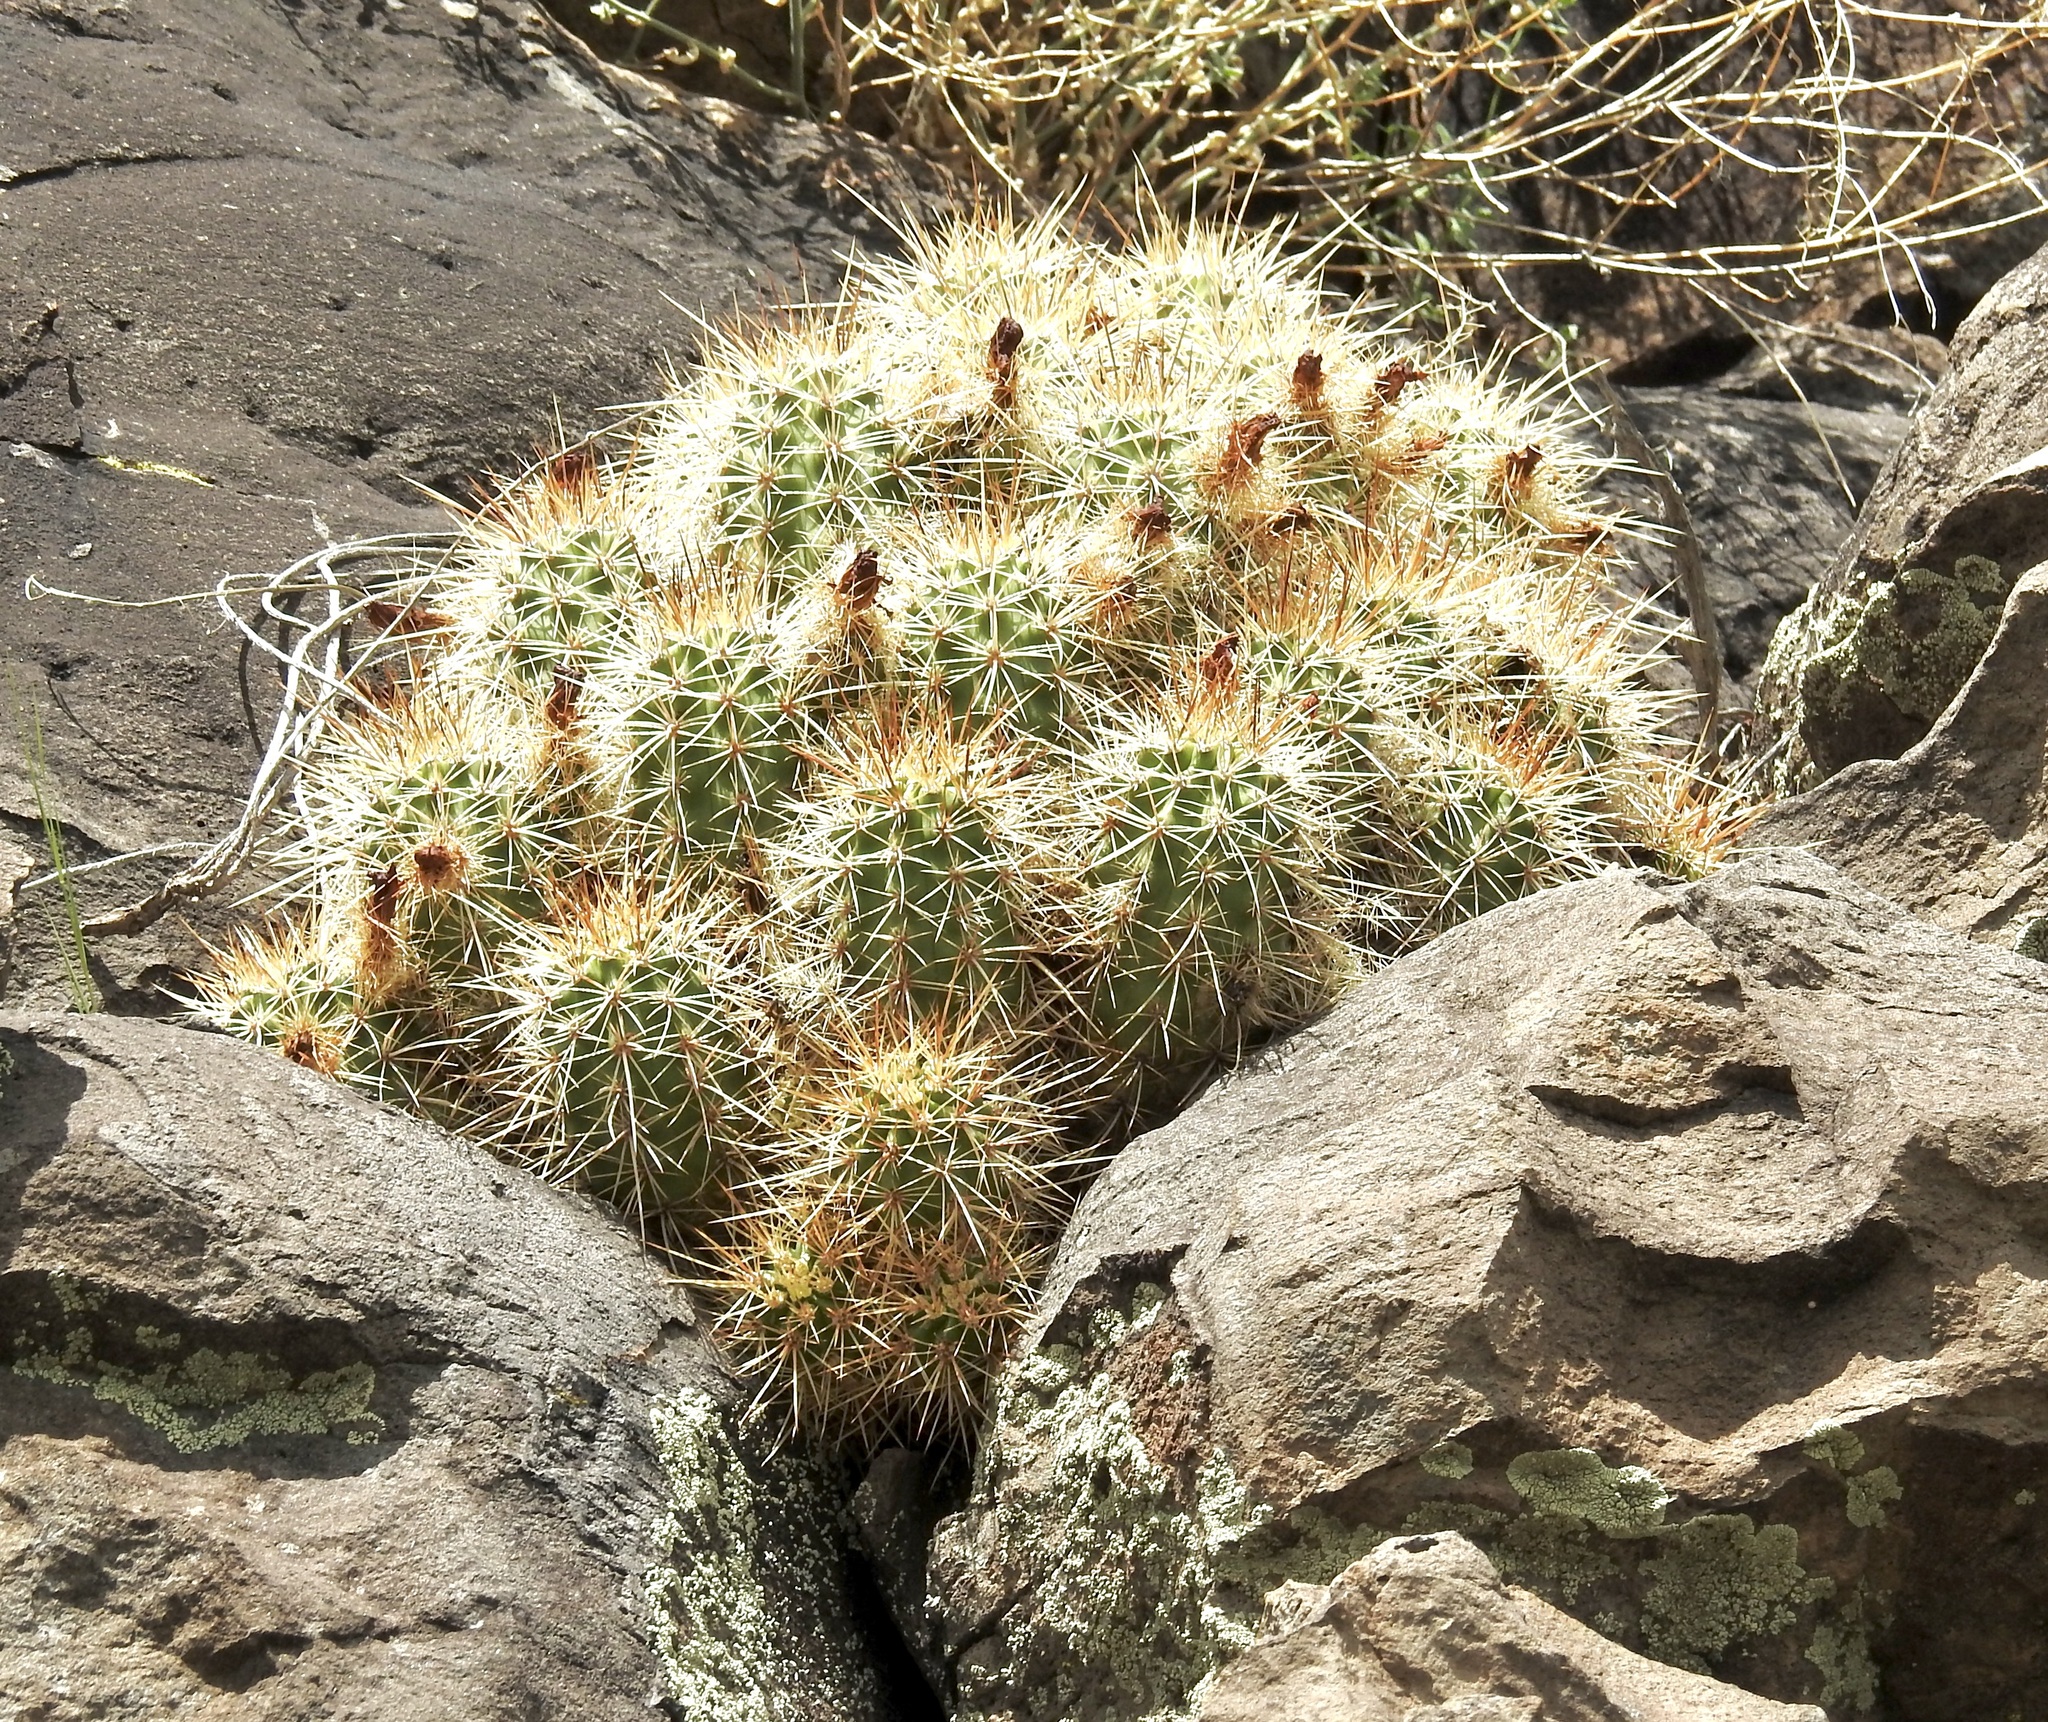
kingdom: Plantae
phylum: Tracheophyta
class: Magnoliopsida
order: Caryophyllales
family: Cactaceae
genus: Echinocereus
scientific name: Echinocereus bakeri
